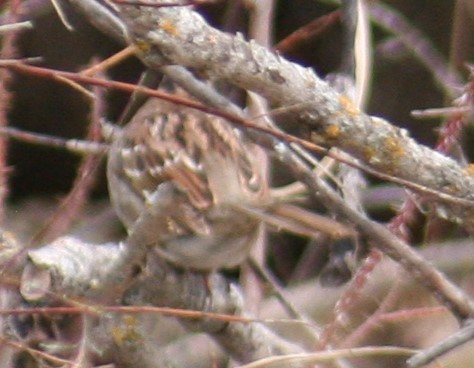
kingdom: Animalia
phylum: Chordata
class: Aves
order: Passeriformes
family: Passerellidae
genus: Zonotrichia
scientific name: Zonotrichia albicollis
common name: White-throated sparrow
